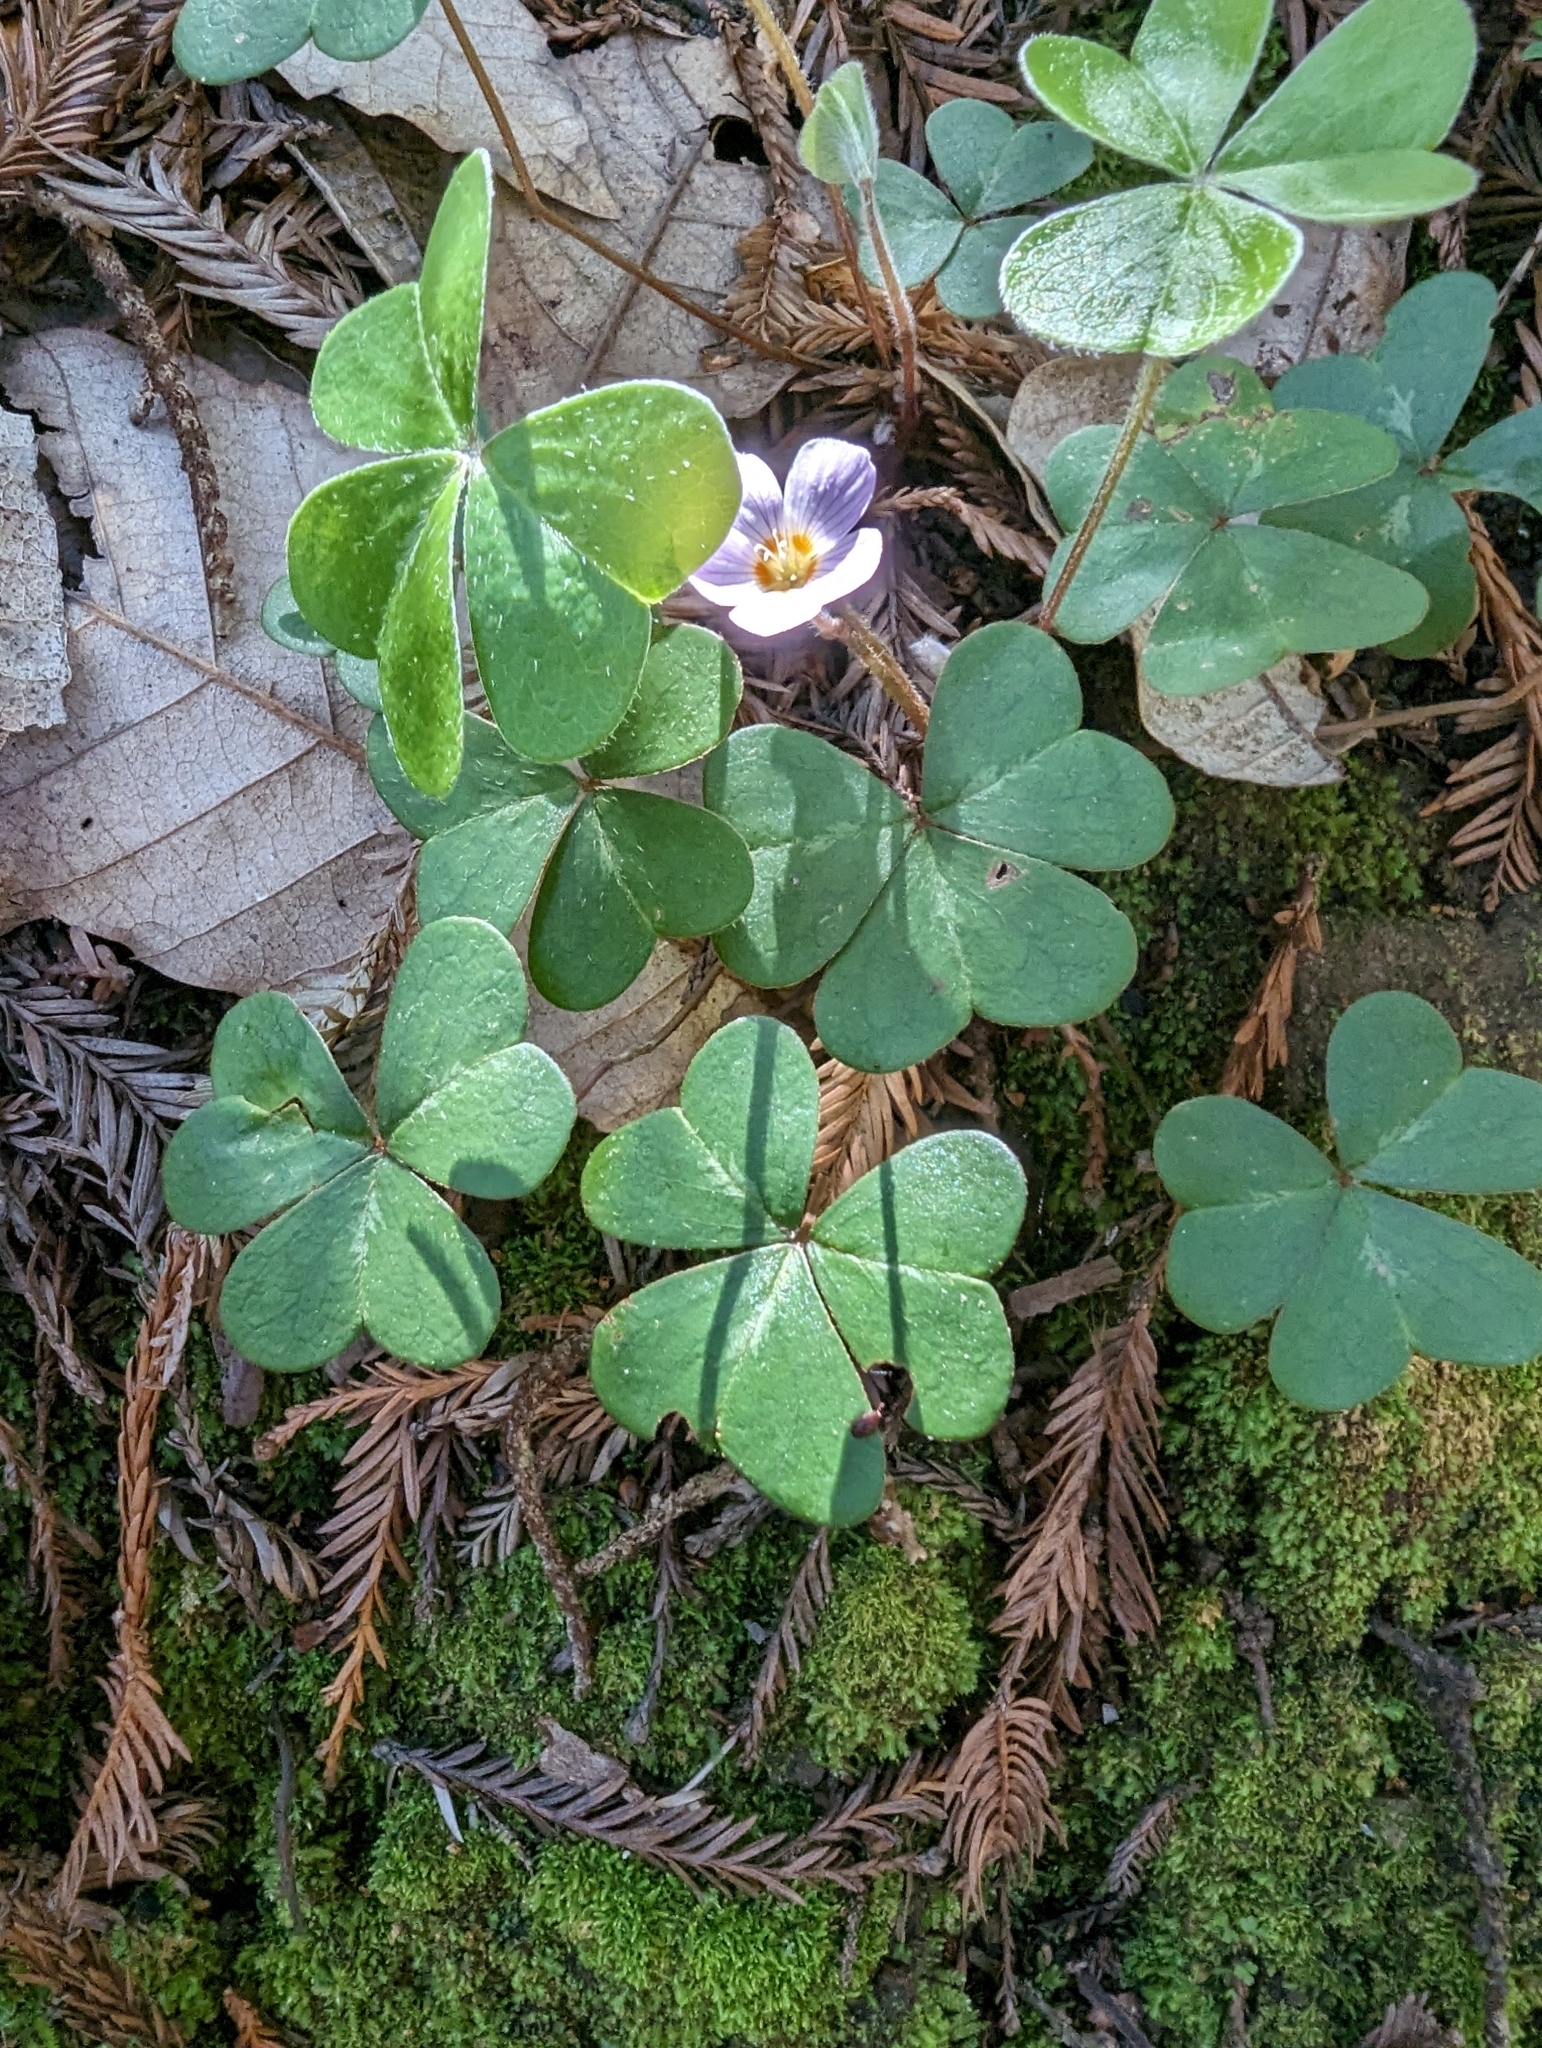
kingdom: Plantae
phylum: Tracheophyta
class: Magnoliopsida
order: Oxalidales
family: Oxalidaceae
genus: Oxalis
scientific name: Oxalis oregana
